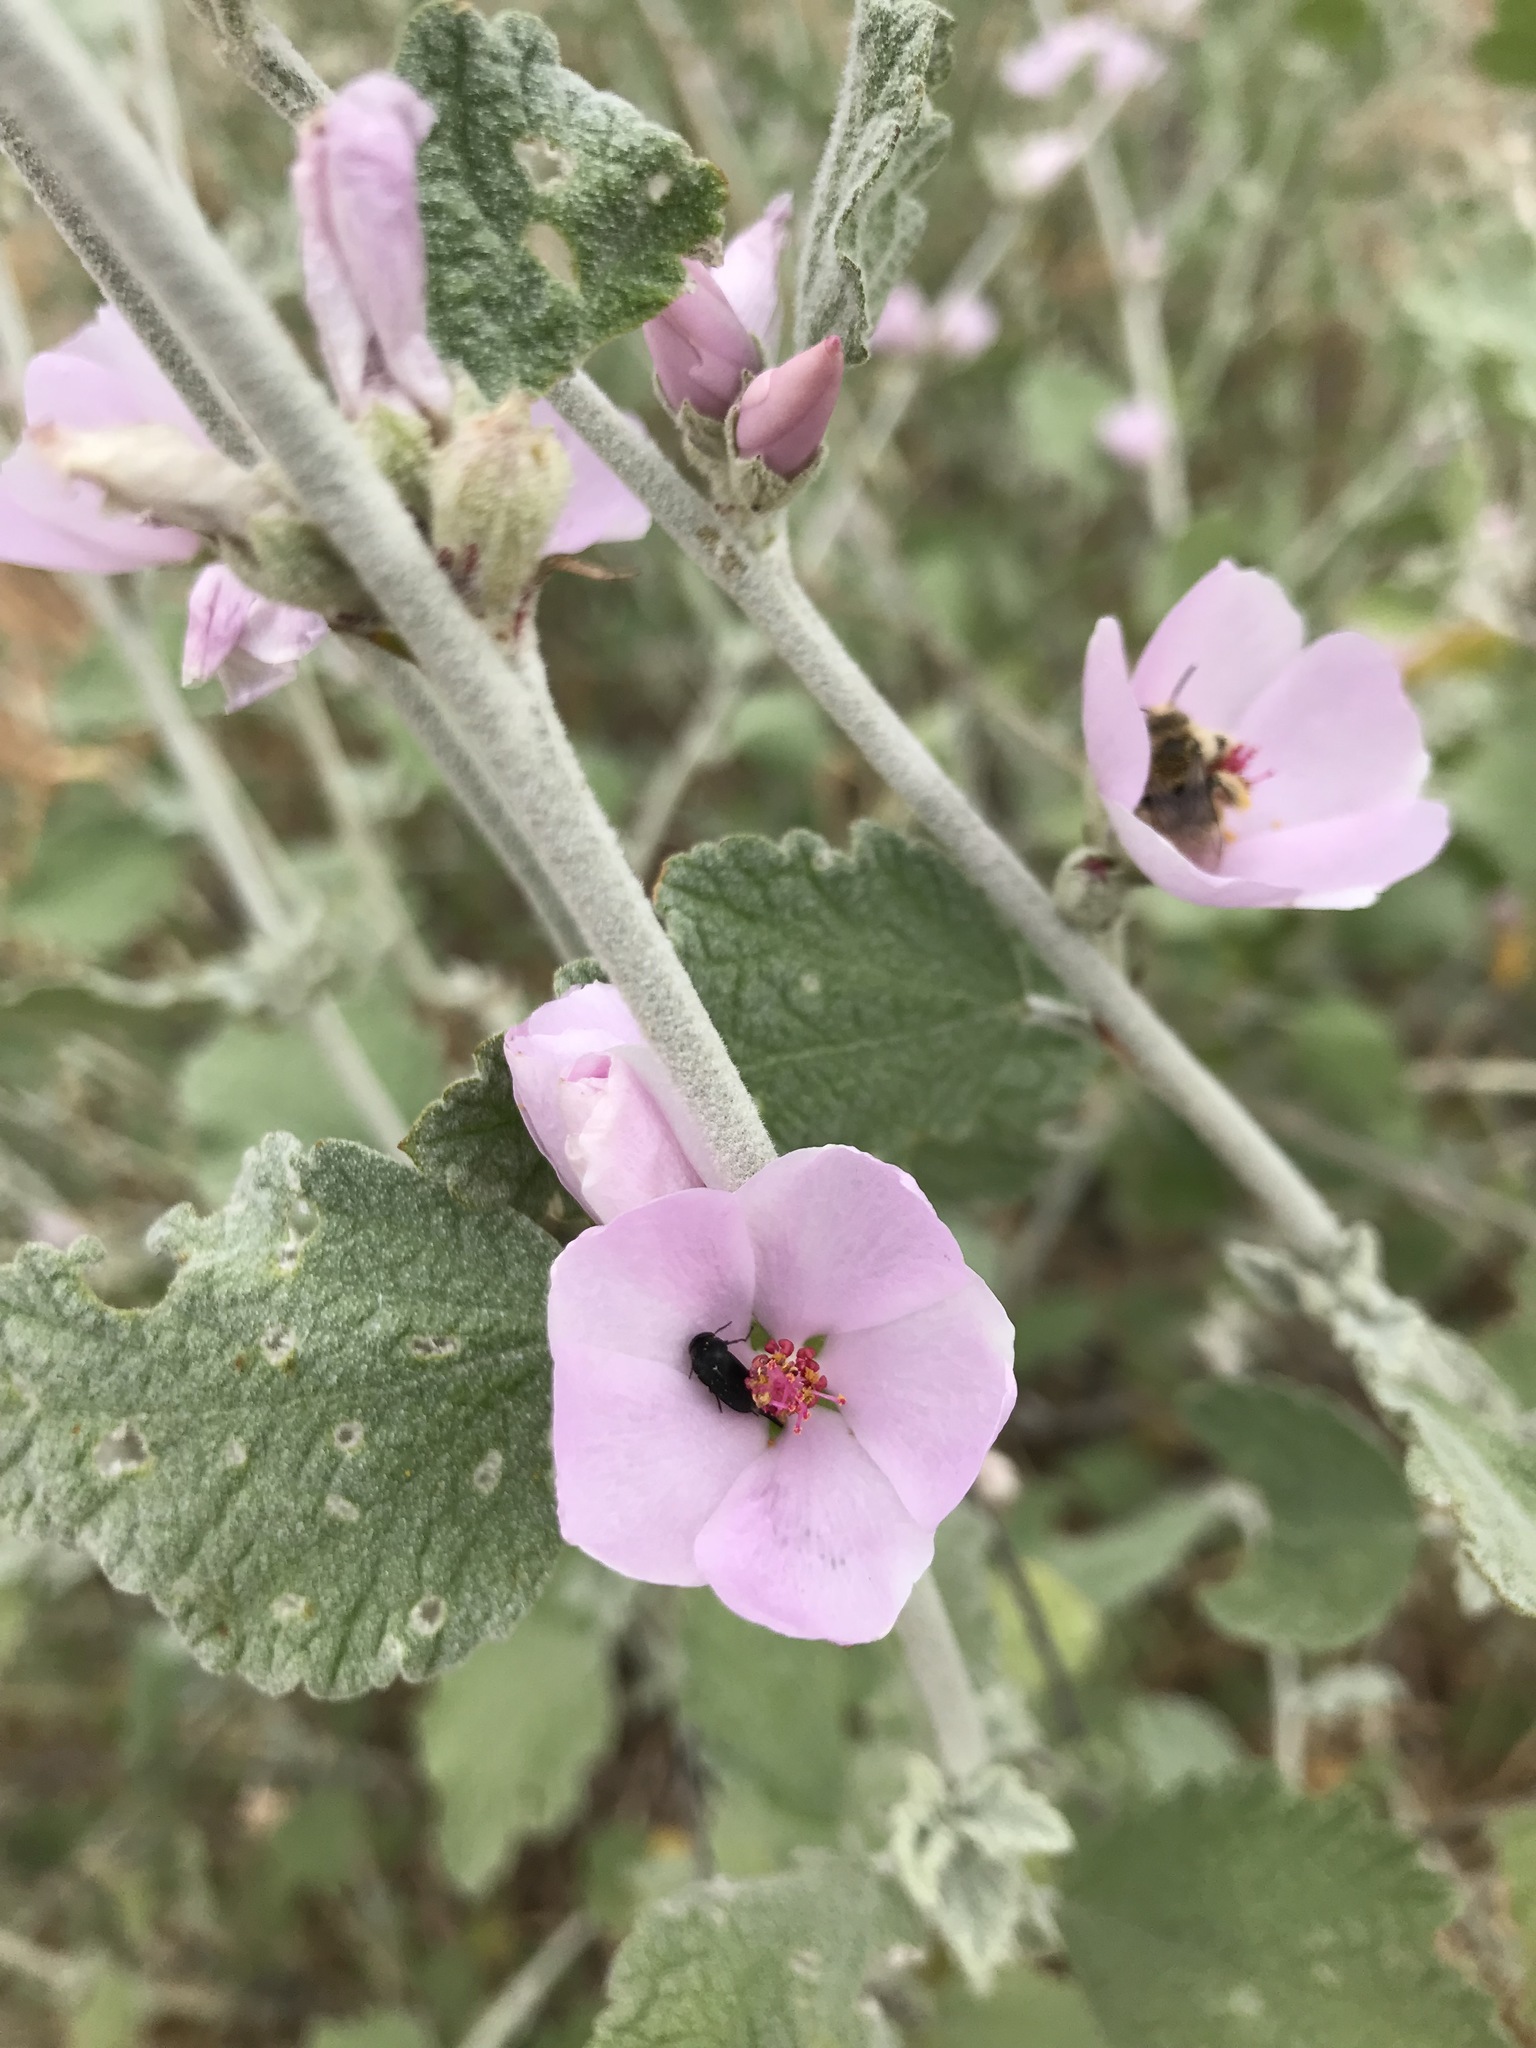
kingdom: Plantae
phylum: Tracheophyta
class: Magnoliopsida
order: Malvales
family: Malvaceae
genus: Malacothamnus
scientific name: Malacothamnus fasciculatus
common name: Sant cruz island bush-mallow
